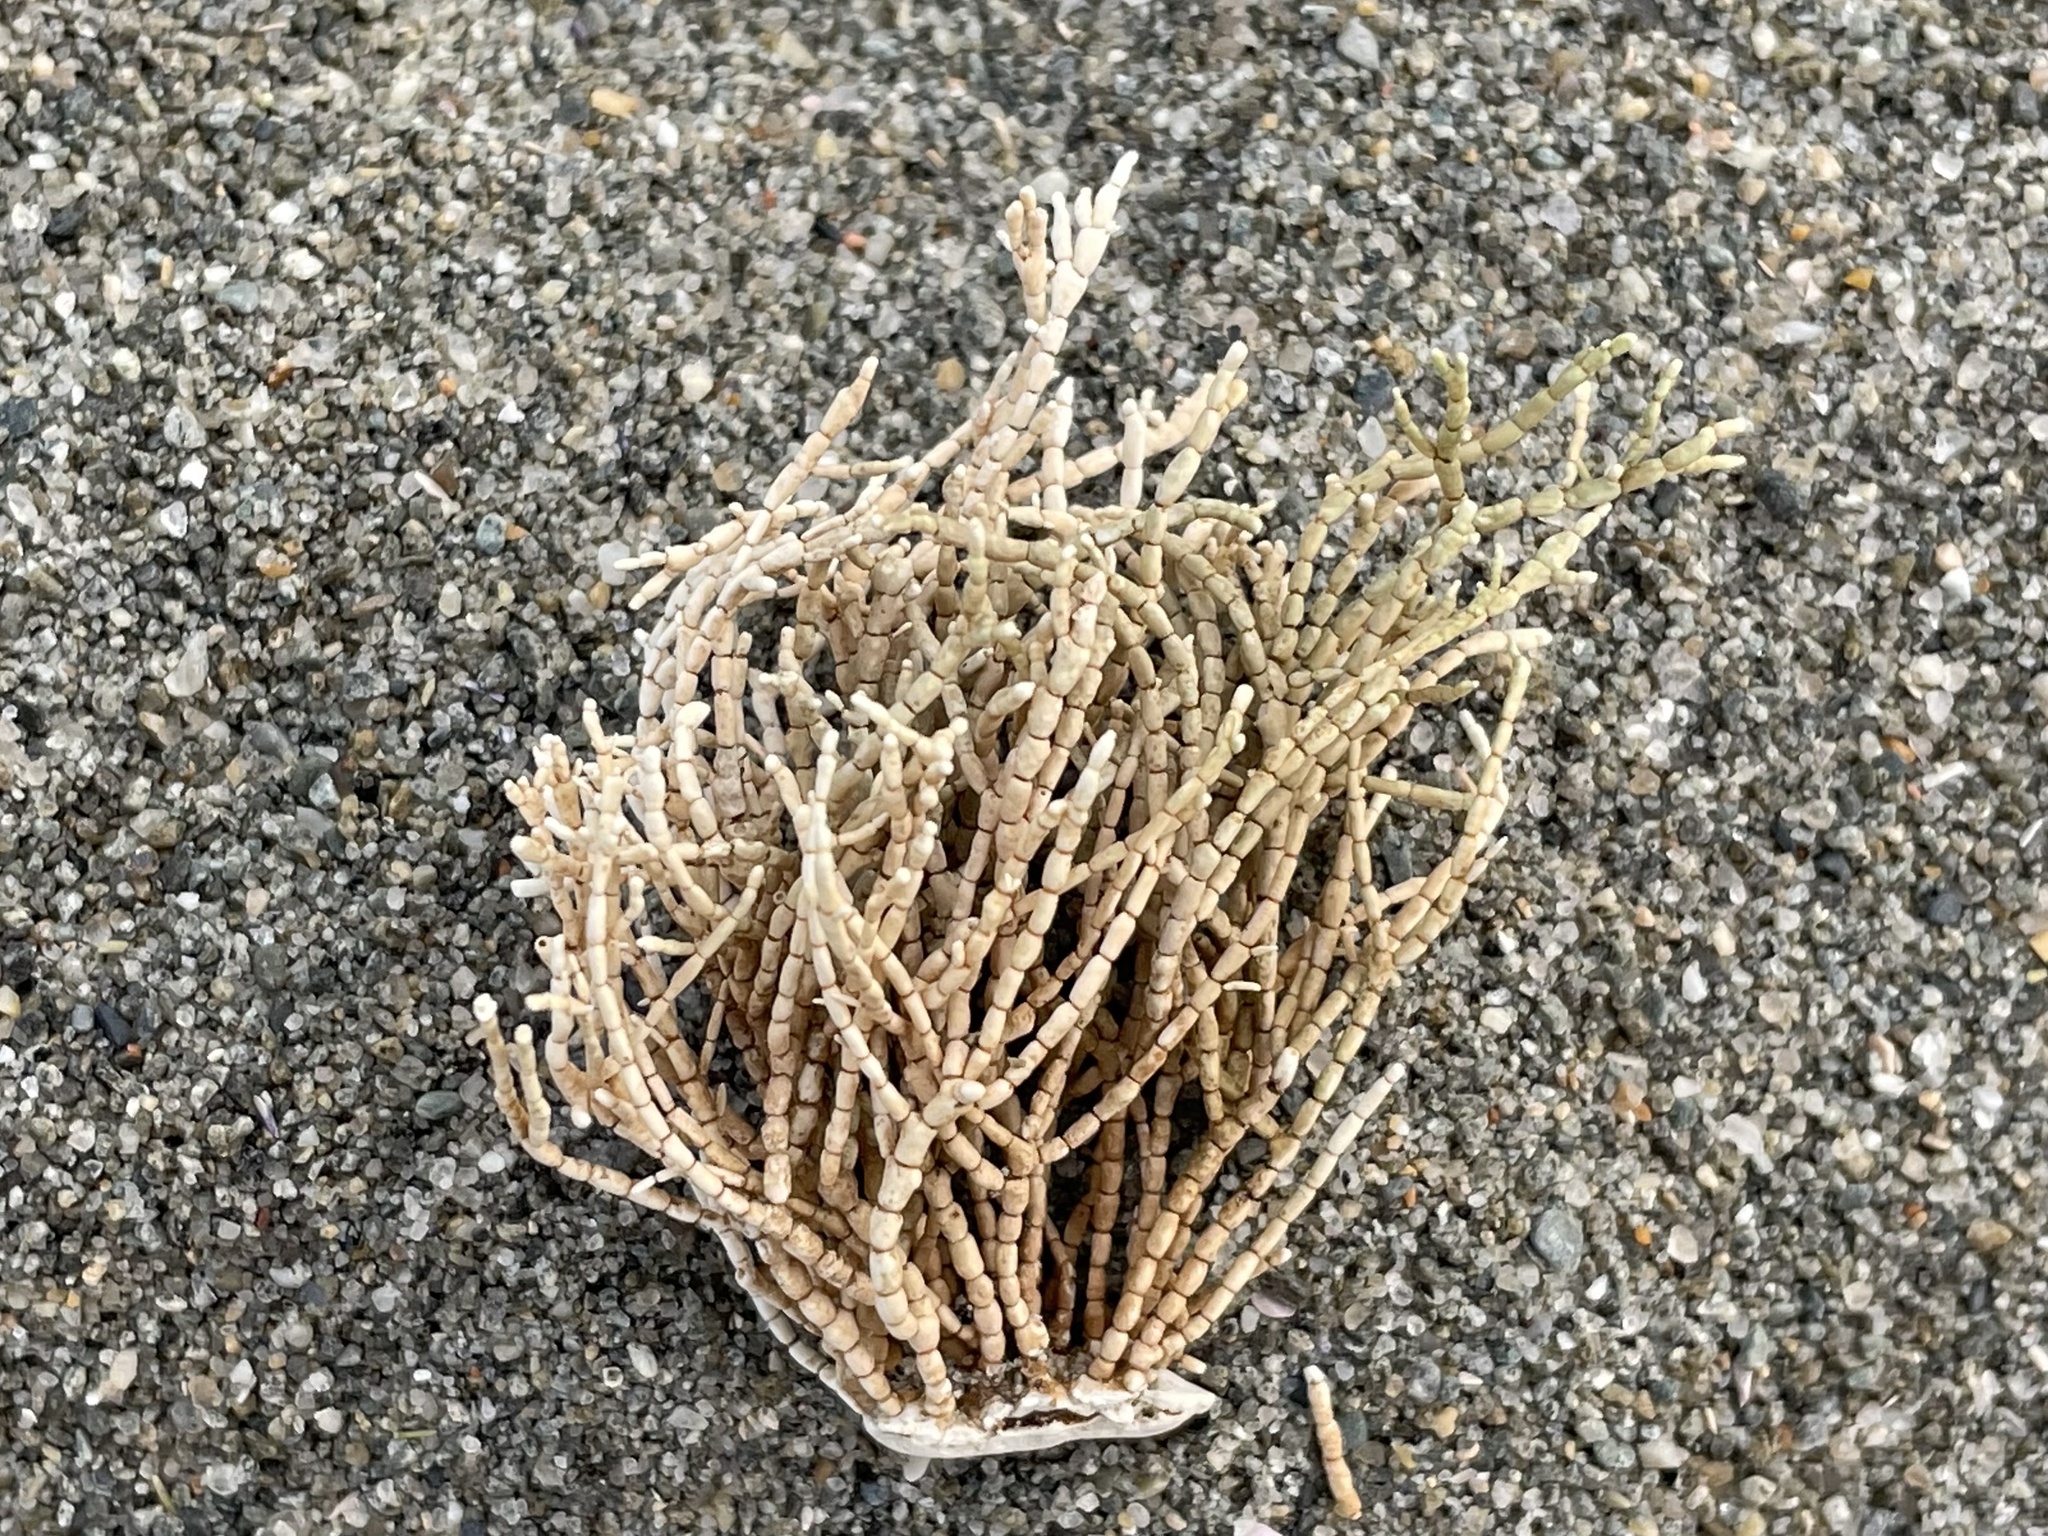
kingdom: Plantae
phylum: Rhodophyta
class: Florideophyceae
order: Corallinales
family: Corallinaceae
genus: Corallina
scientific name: Corallina officinalis
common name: Coral weed
